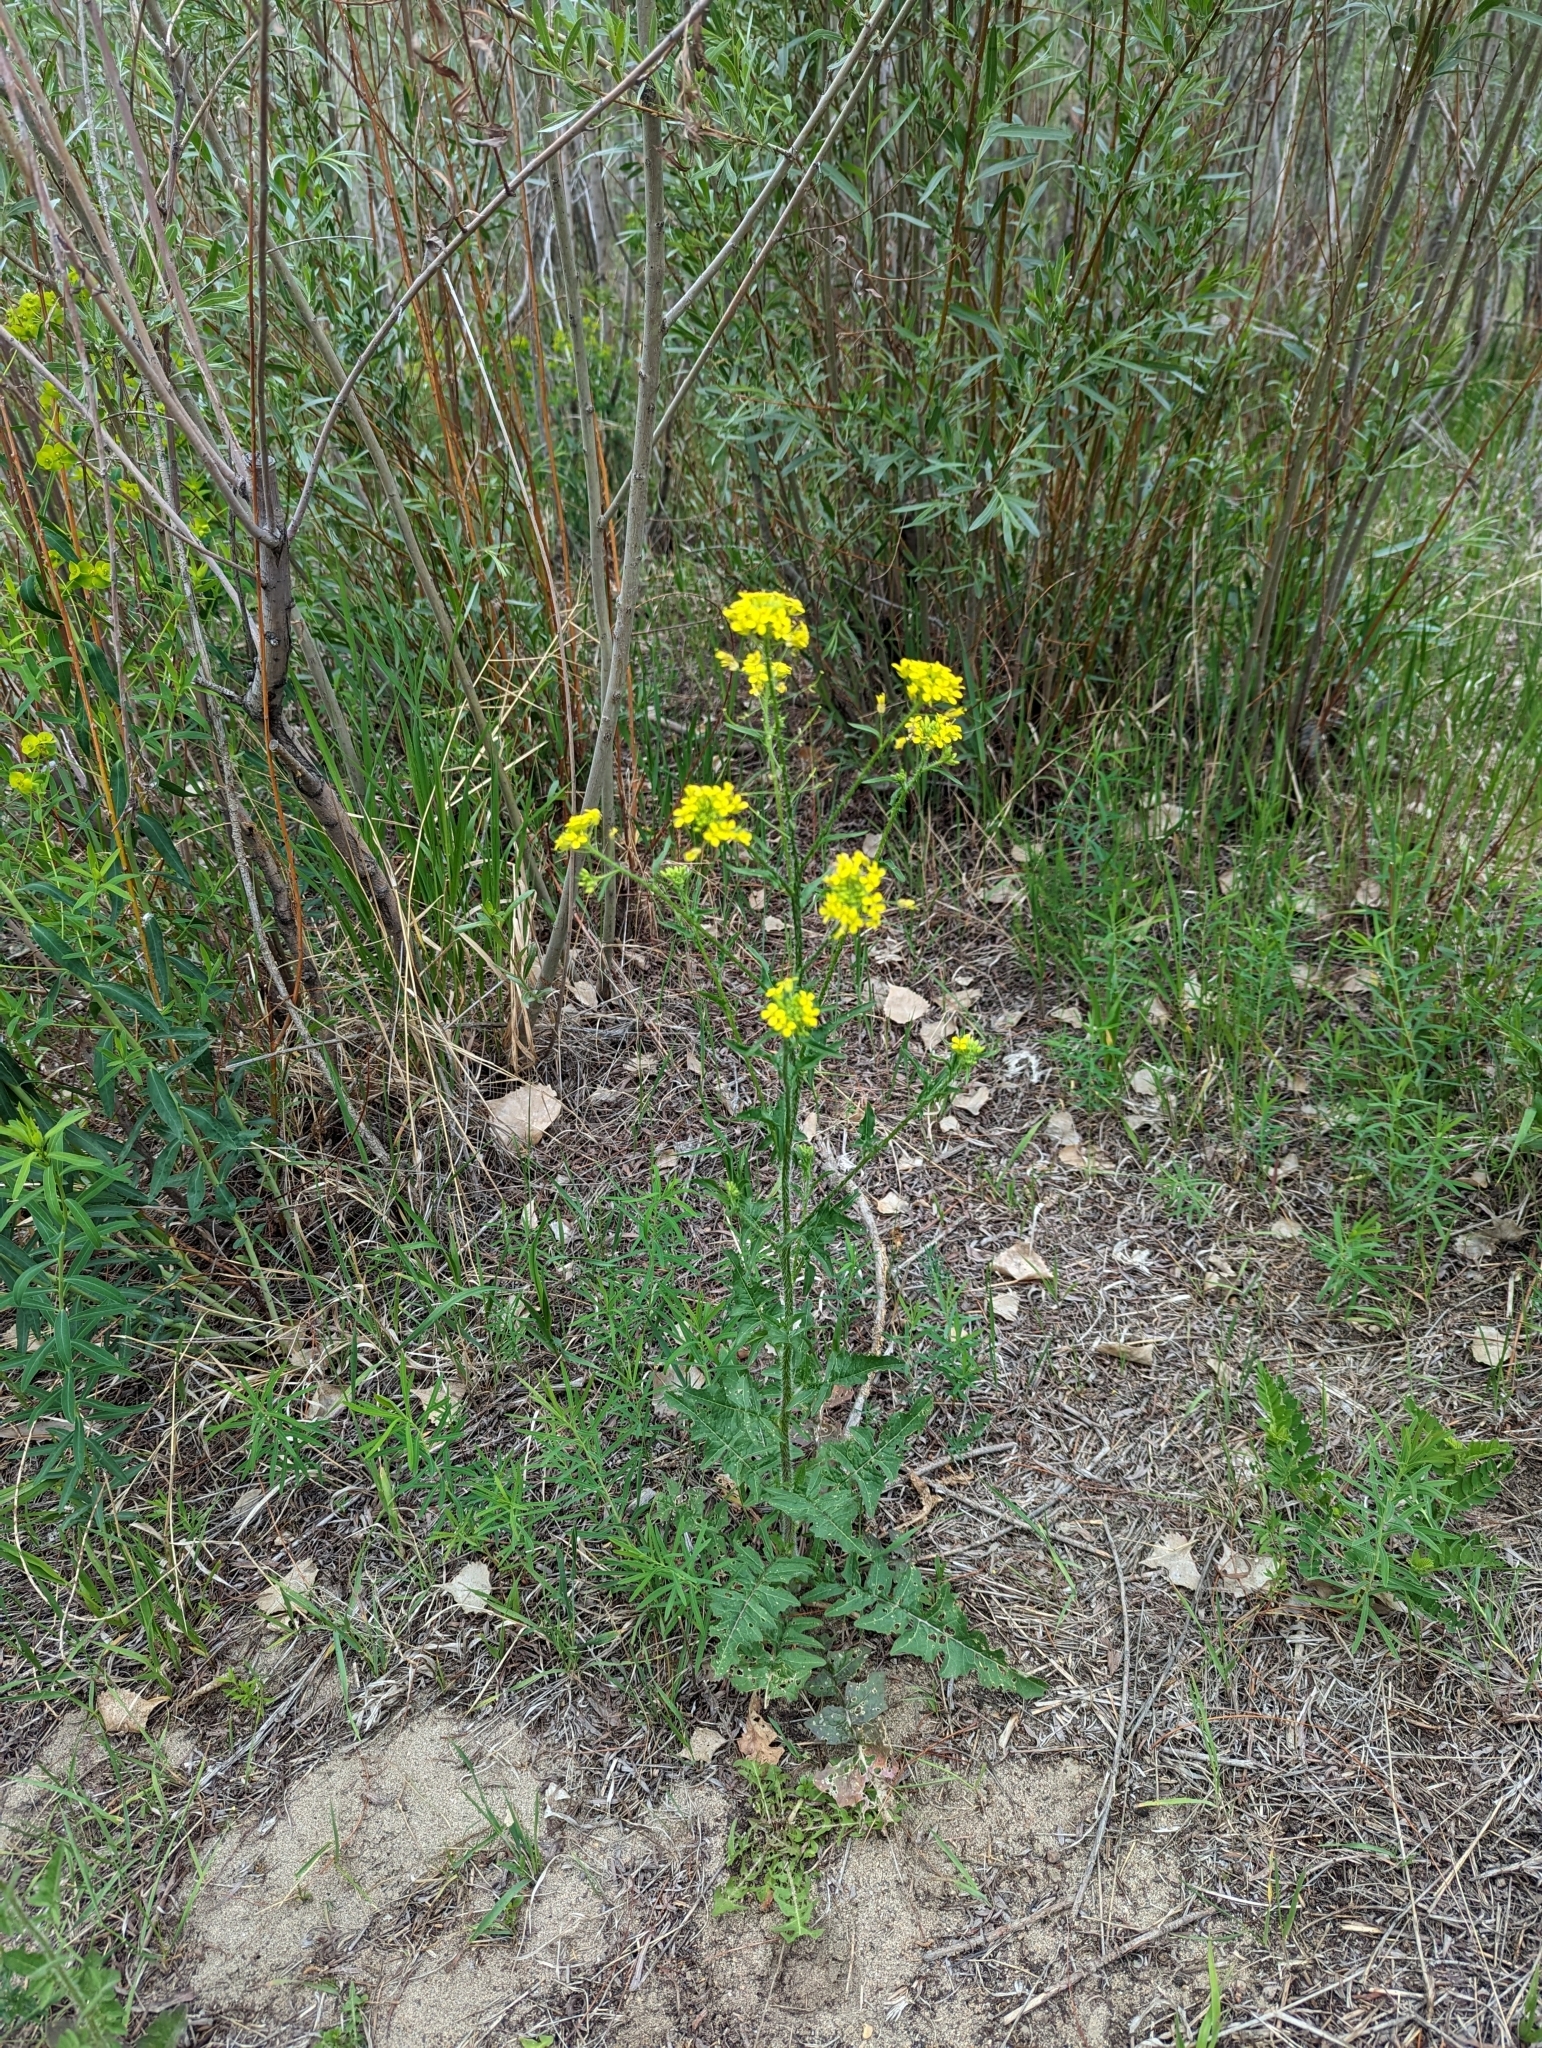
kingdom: Plantae
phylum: Tracheophyta
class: Magnoliopsida
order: Brassicales
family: Brassicaceae
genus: Sisymbrium
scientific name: Sisymbrium loeselii
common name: False london-rocket
